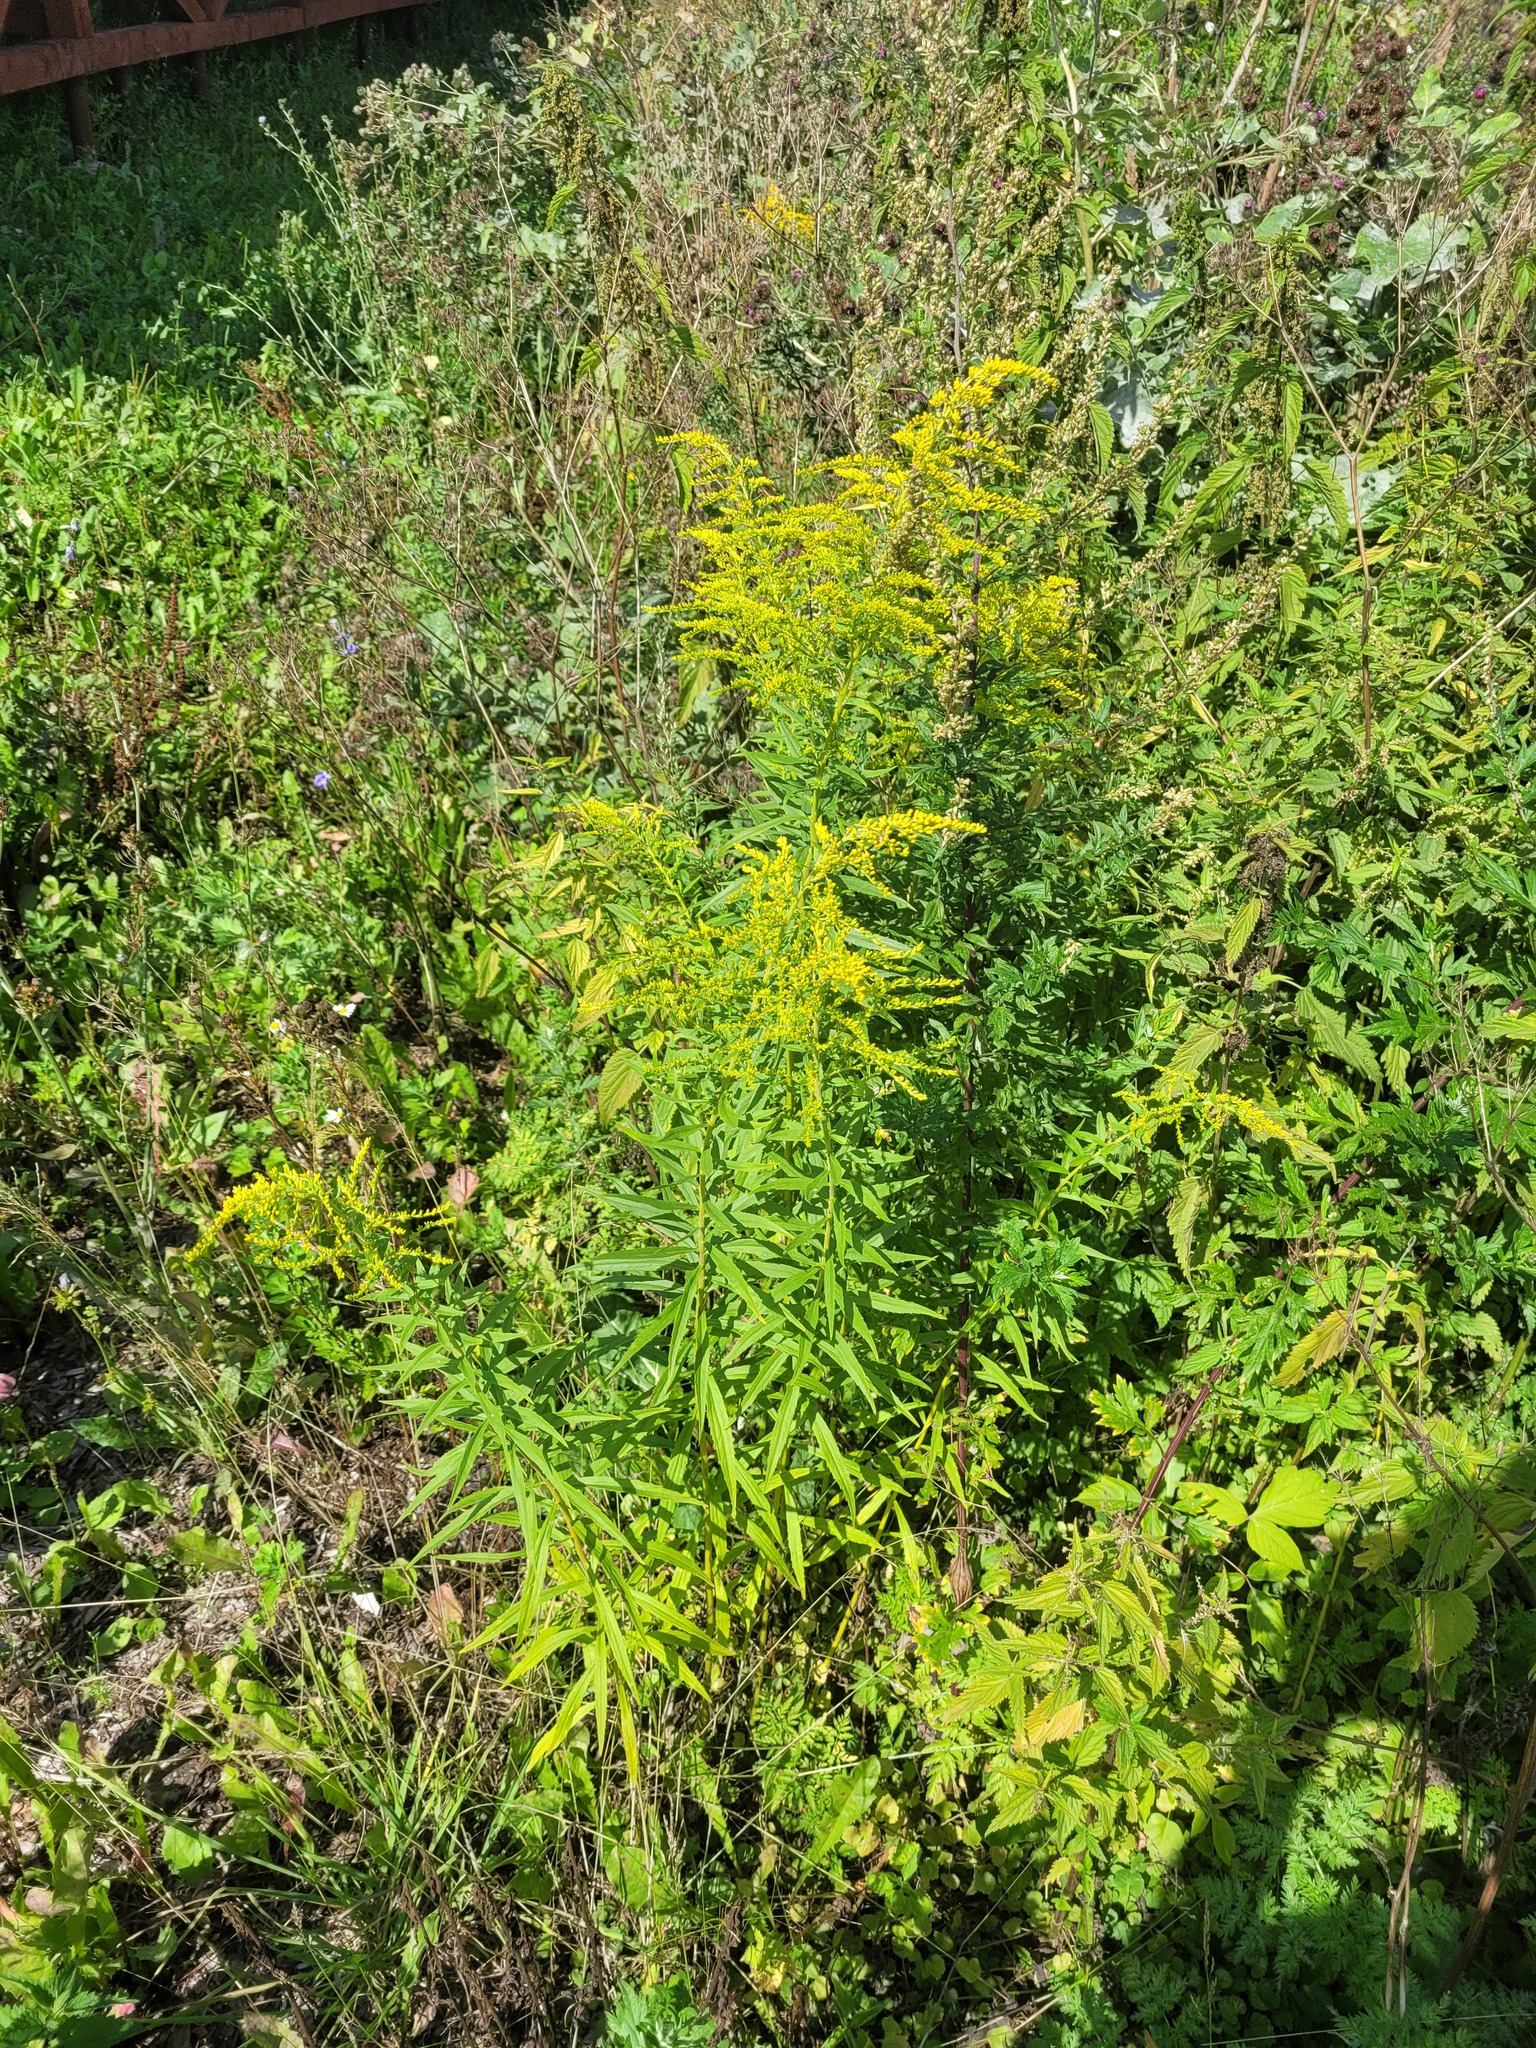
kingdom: Plantae
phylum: Tracheophyta
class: Magnoliopsida
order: Asterales
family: Asteraceae
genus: Solidago
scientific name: Solidago canadensis
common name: Canada goldenrod
